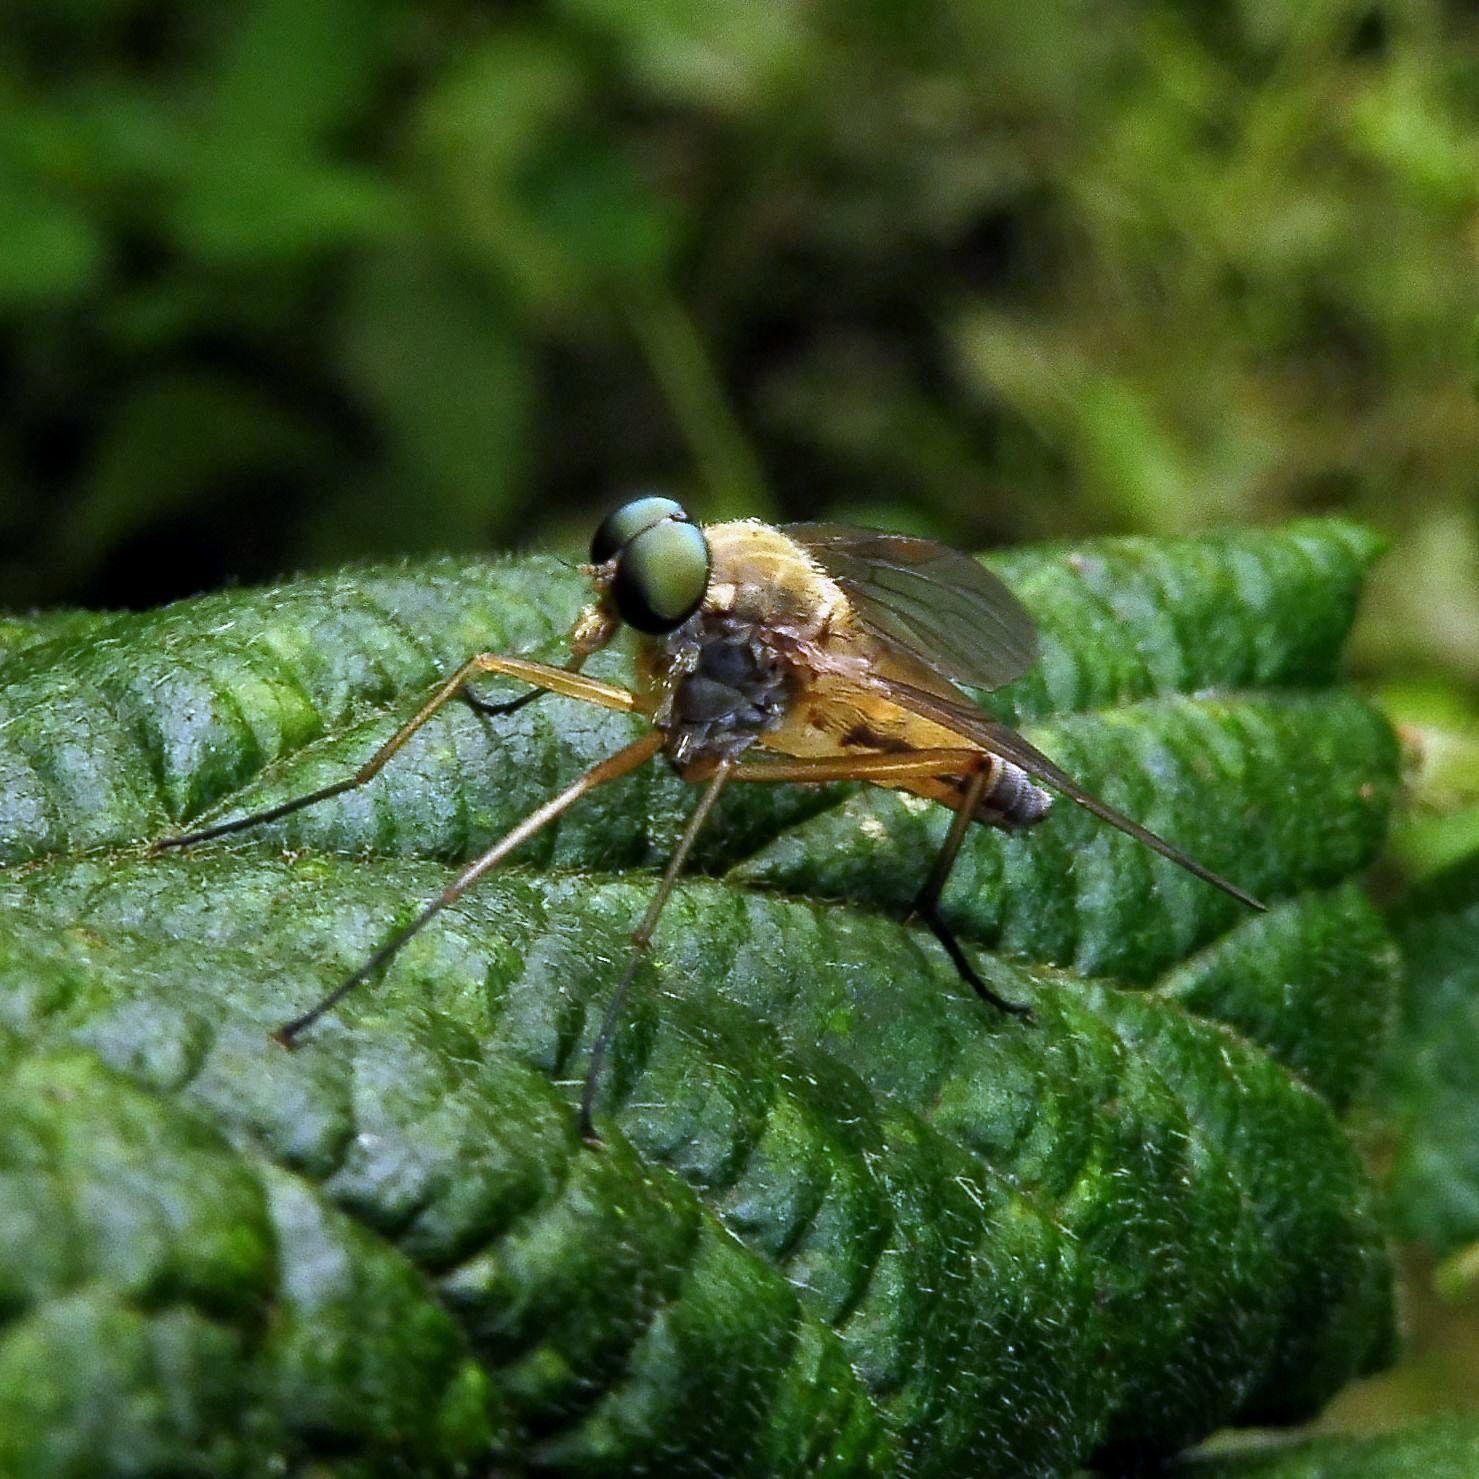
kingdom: Animalia
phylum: Arthropoda
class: Insecta
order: Diptera
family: Rhagionidae
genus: Rhagio
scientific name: Rhagio tringaria
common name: Marsh snipefly
